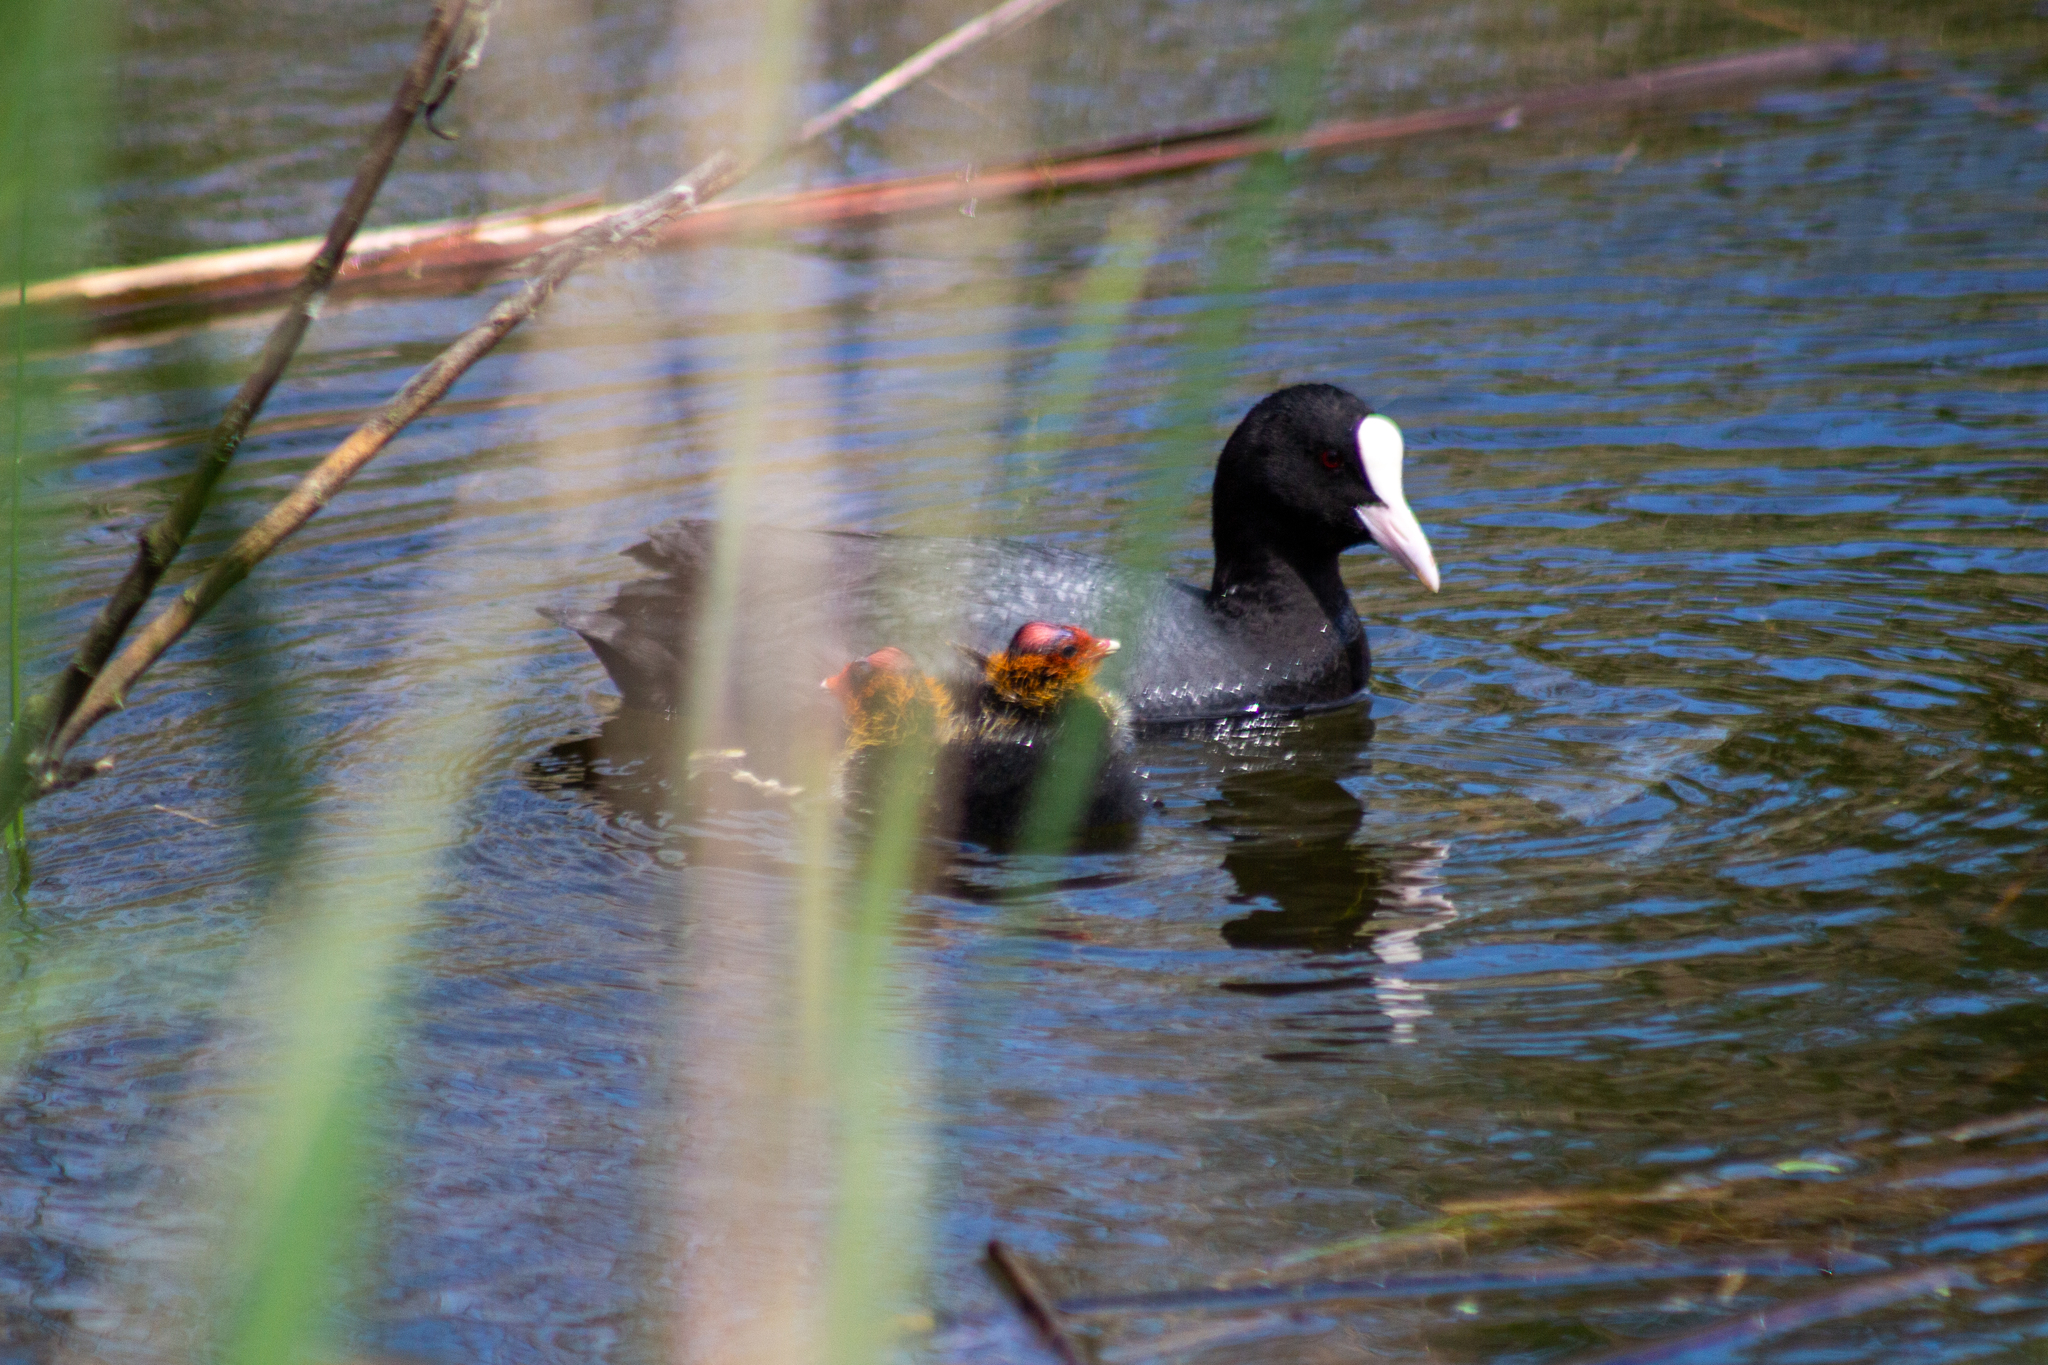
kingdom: Animalia
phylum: Chordata
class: Aves
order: Gruiformes
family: Rallidae
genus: Fulica
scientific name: Fulica atra
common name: Eurasian coot
